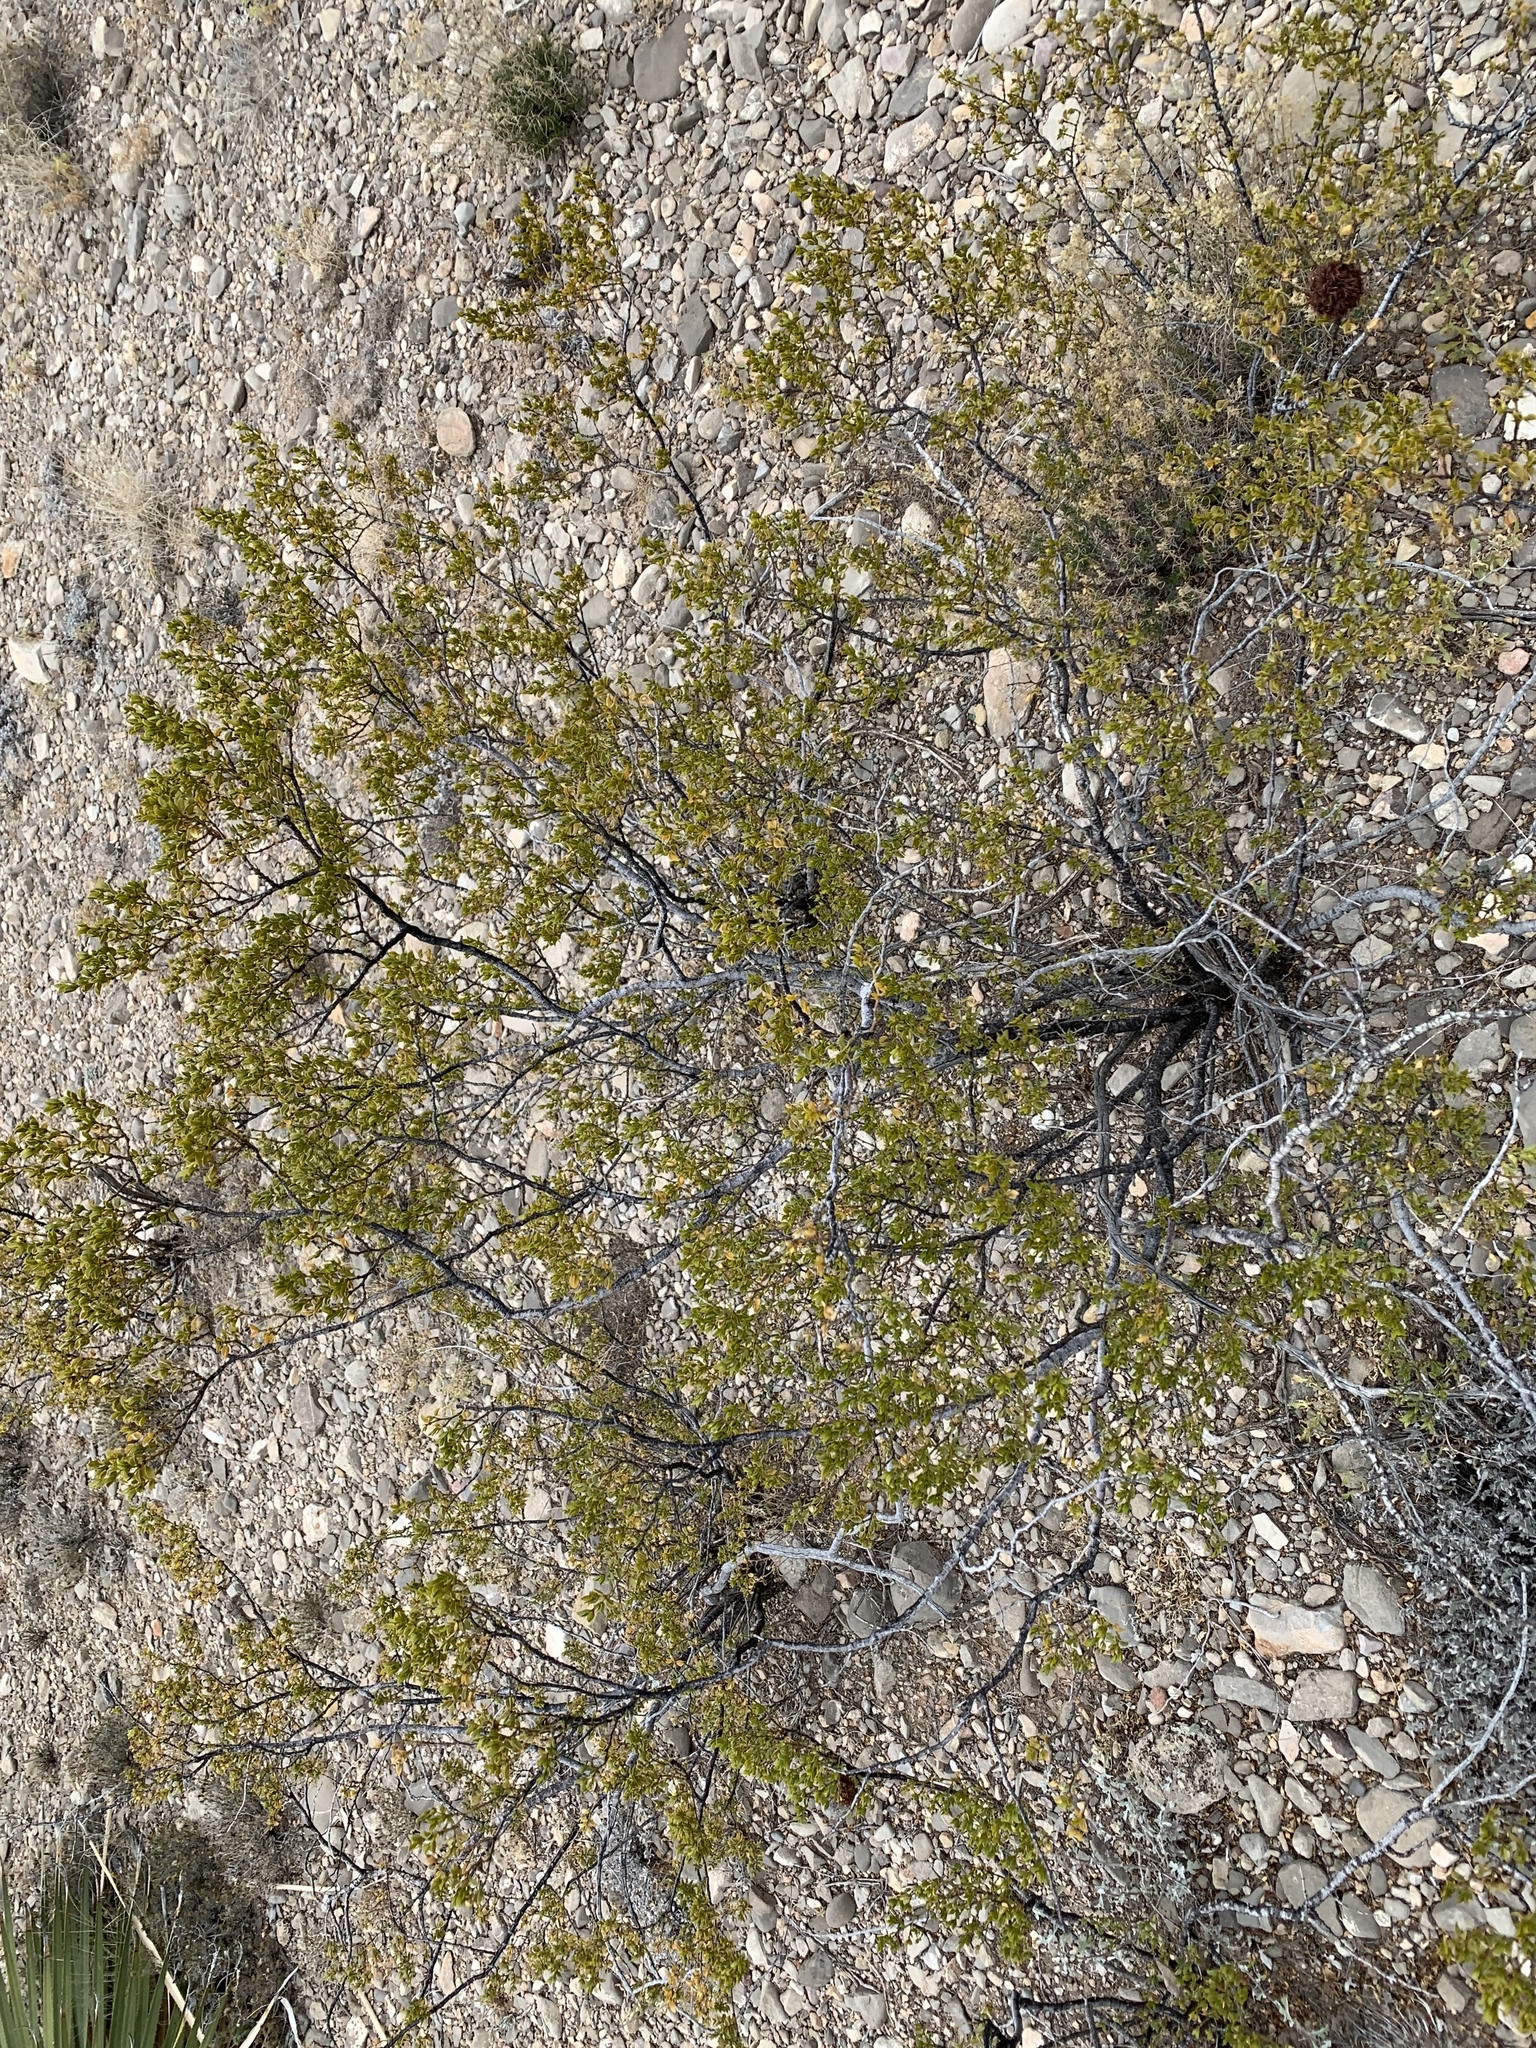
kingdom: Plantae
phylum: Tracheophyta
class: Magnoliopsida
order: Zygophyllales
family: Zygophyllaceae
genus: Larrea
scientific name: Larrea tridentata
